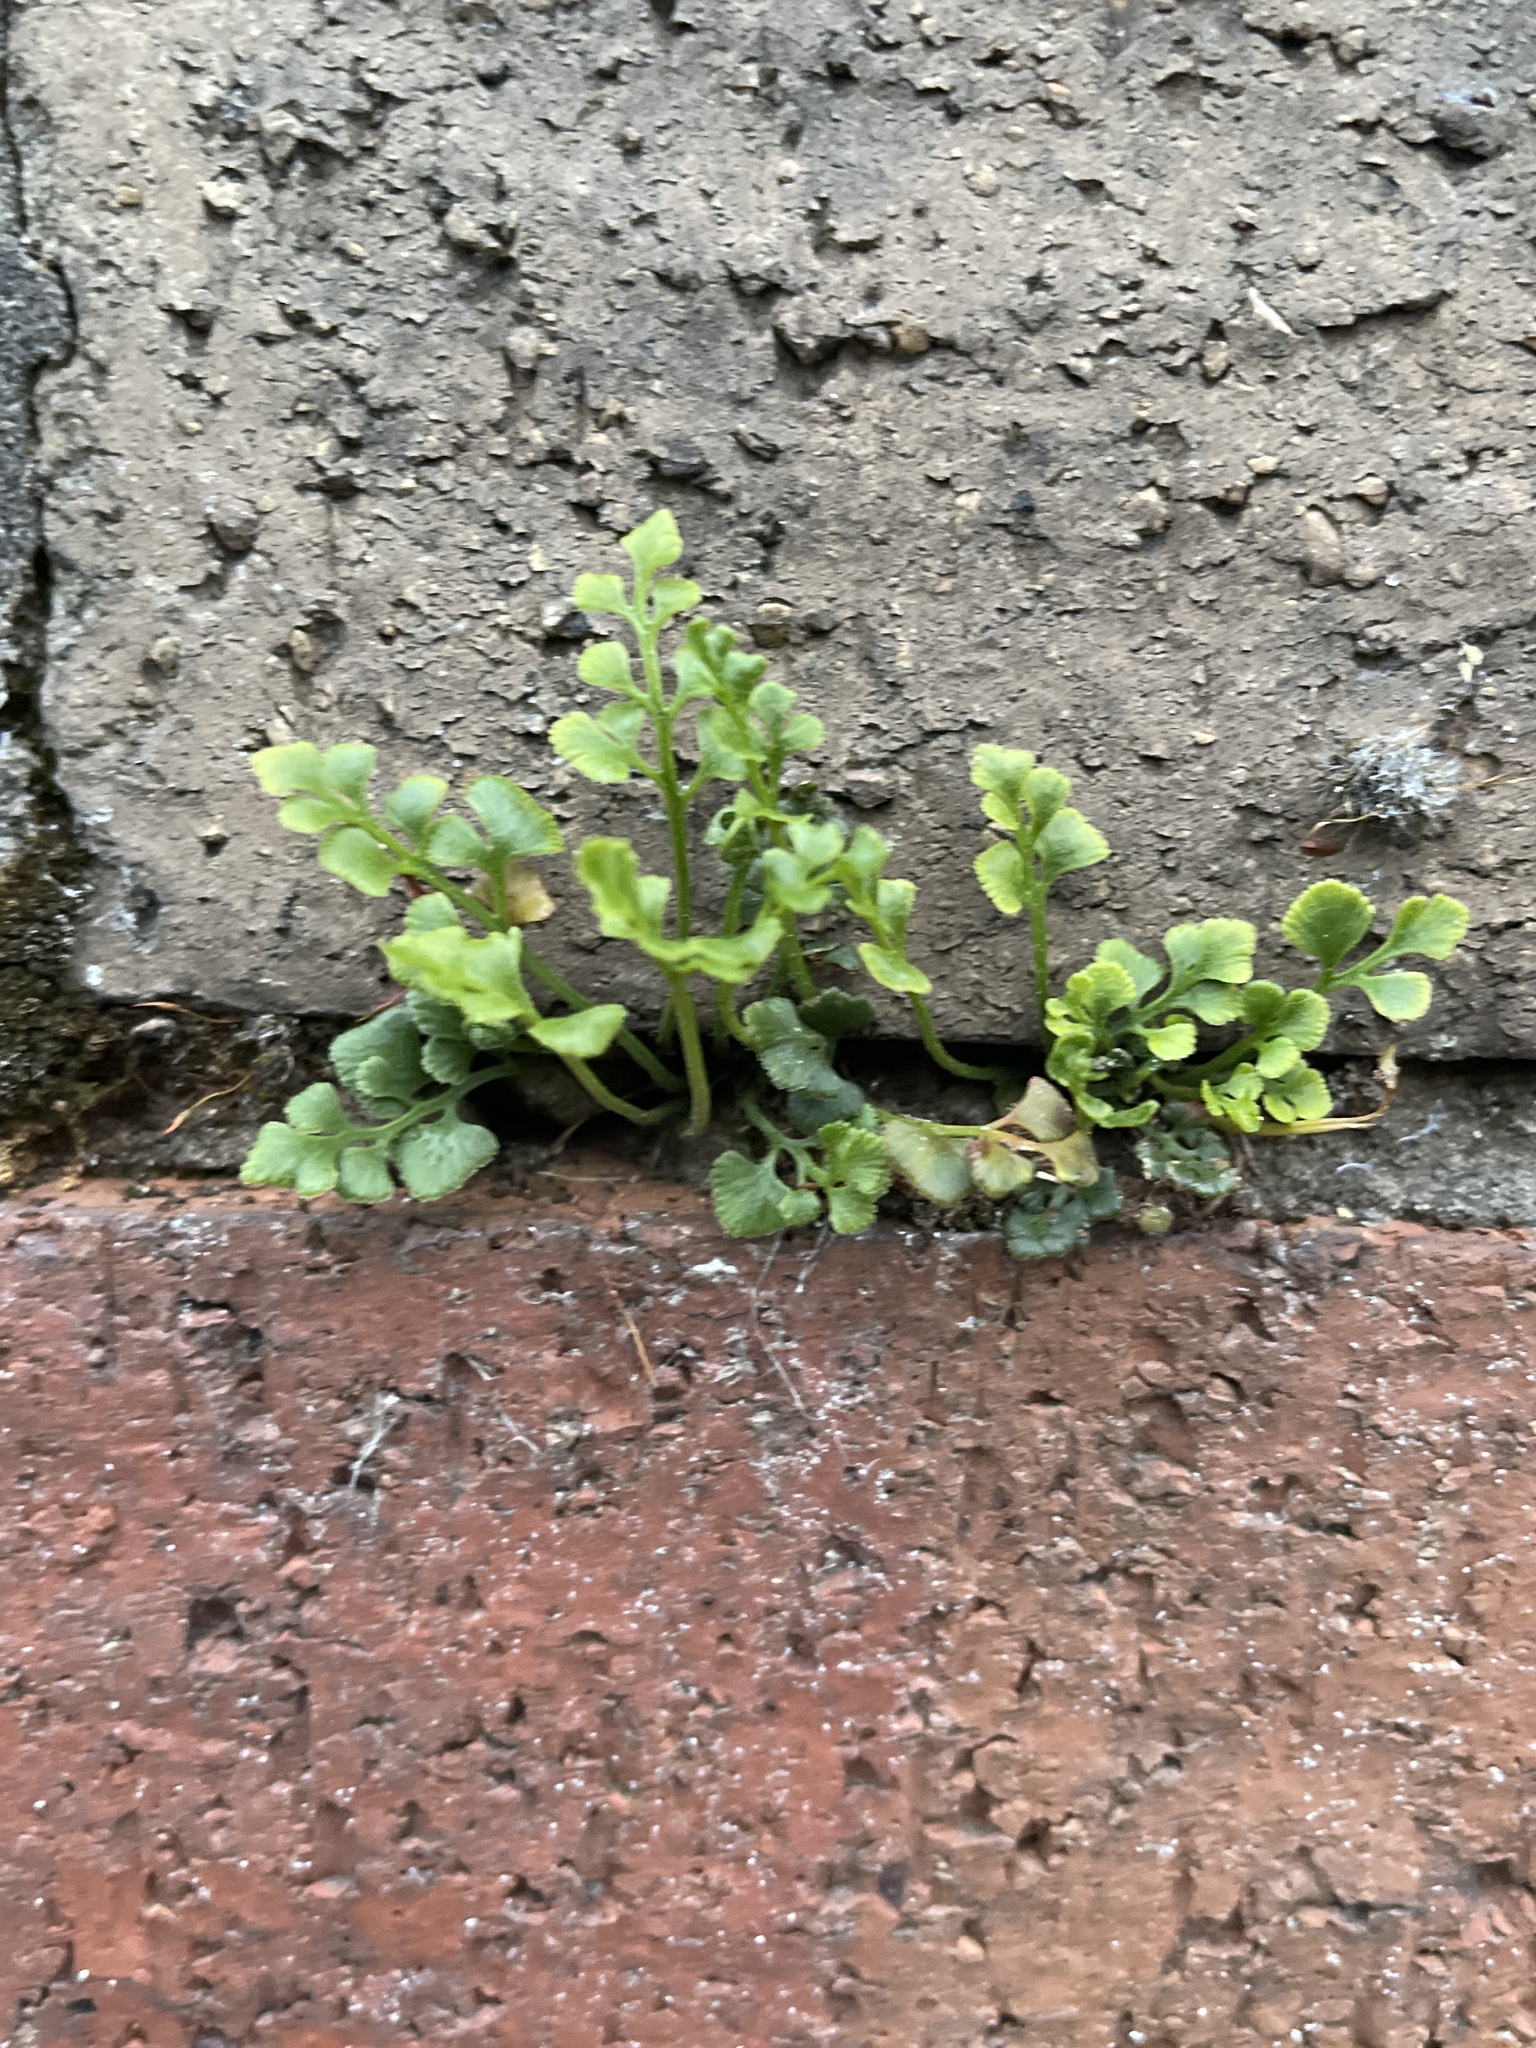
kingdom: Plantae
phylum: Tracheophyta
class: Polypodiopsida
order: Polypodiales
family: Aspleniaceae
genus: Asplenium
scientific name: Asplenium ruta-muraria
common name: Wall-rue
